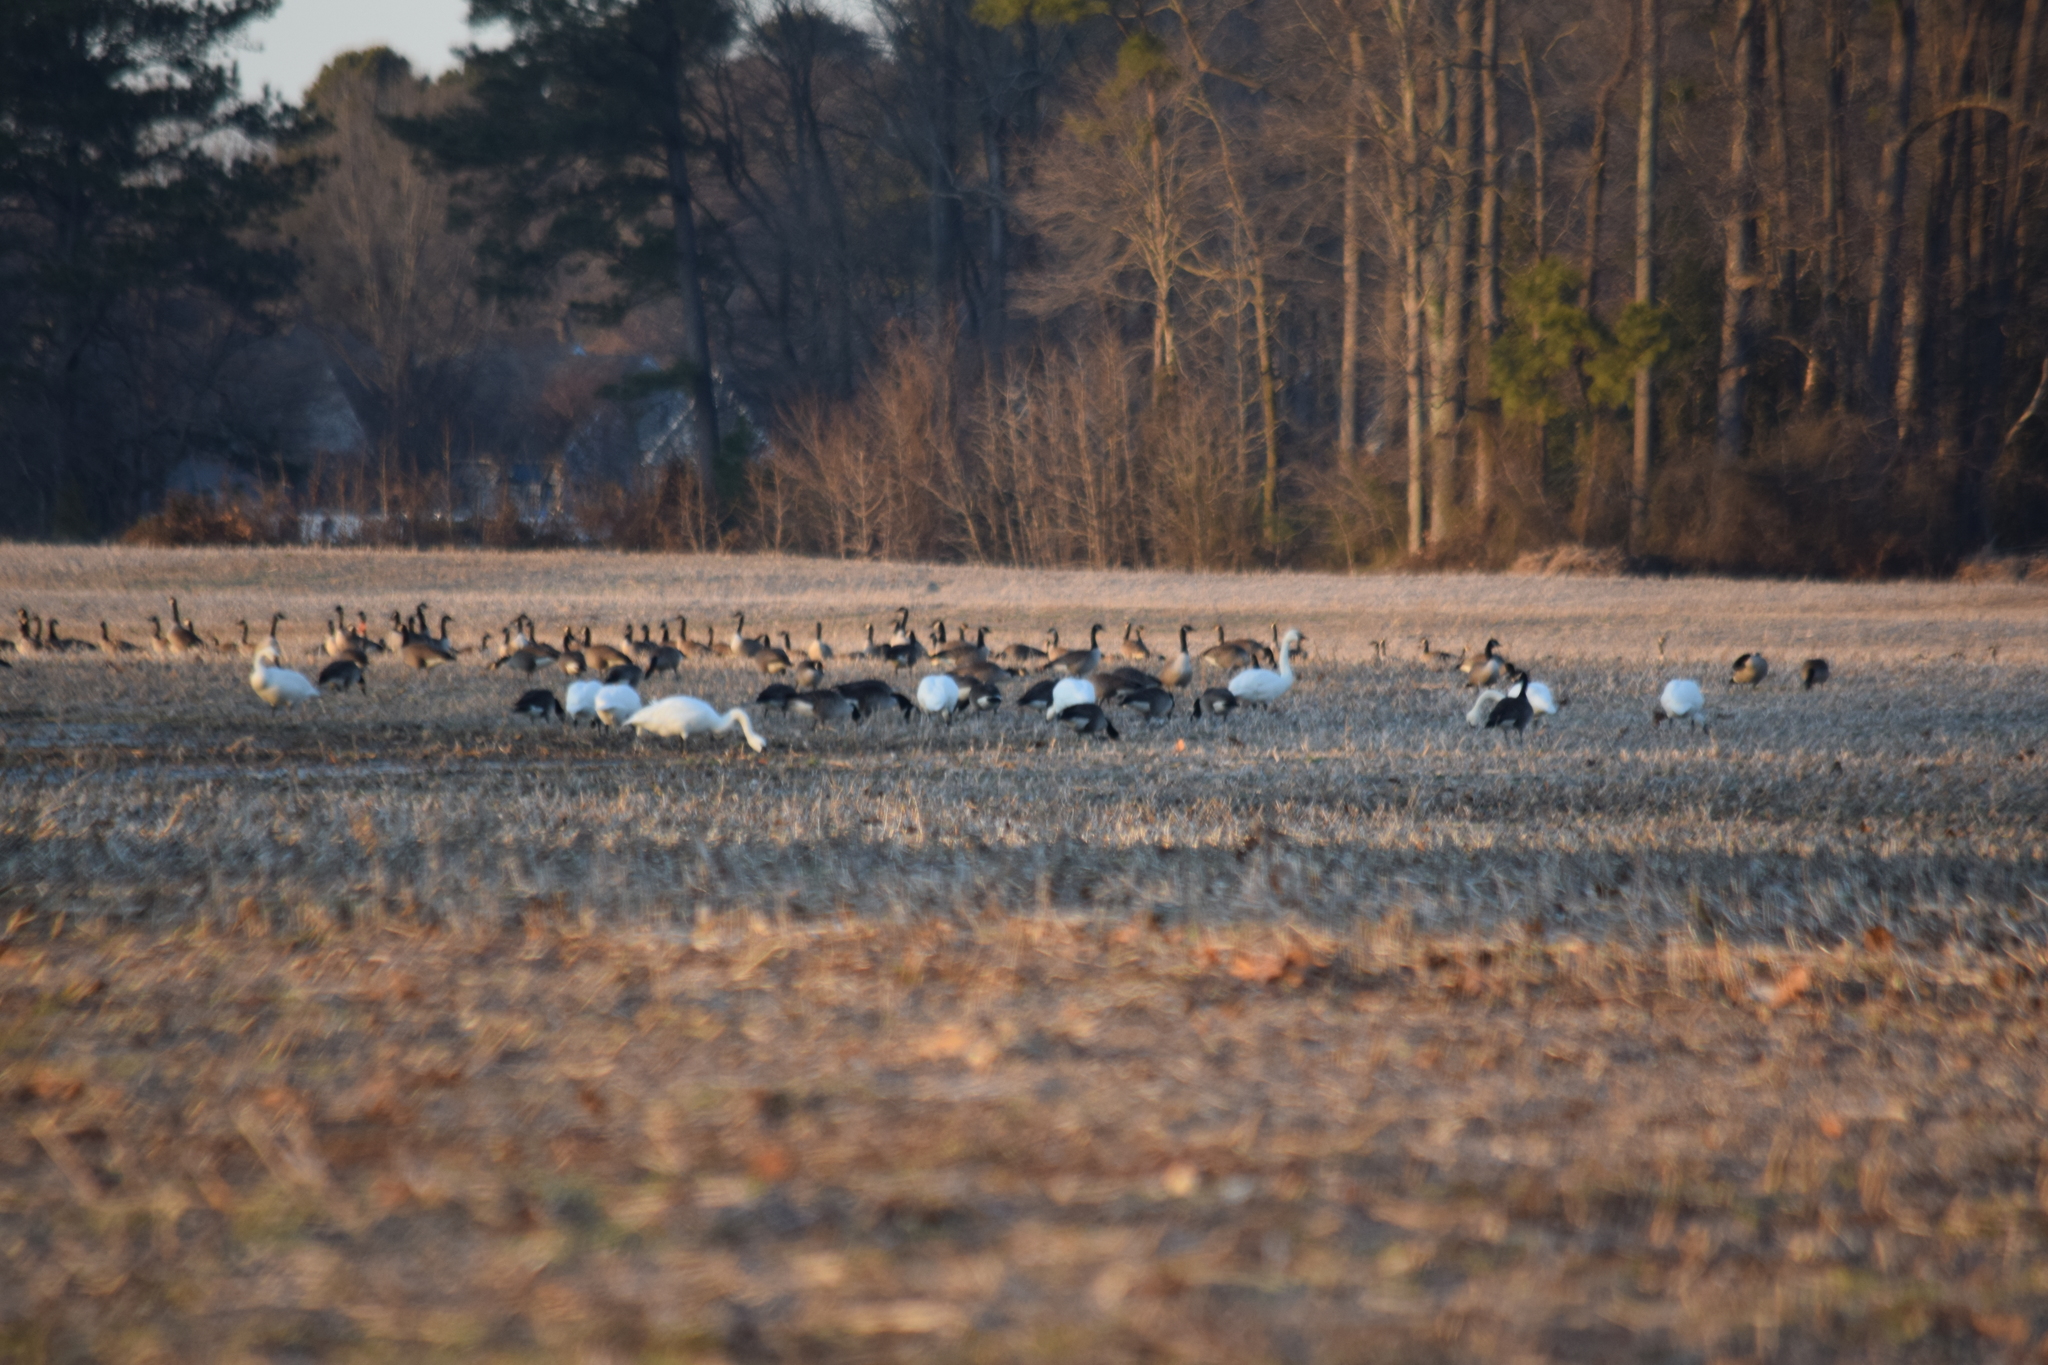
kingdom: Animalia
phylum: Chordata
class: Aves
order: Anseriformes
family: Anatidae
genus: Branta
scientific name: Branta canadensis
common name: Canada goose
